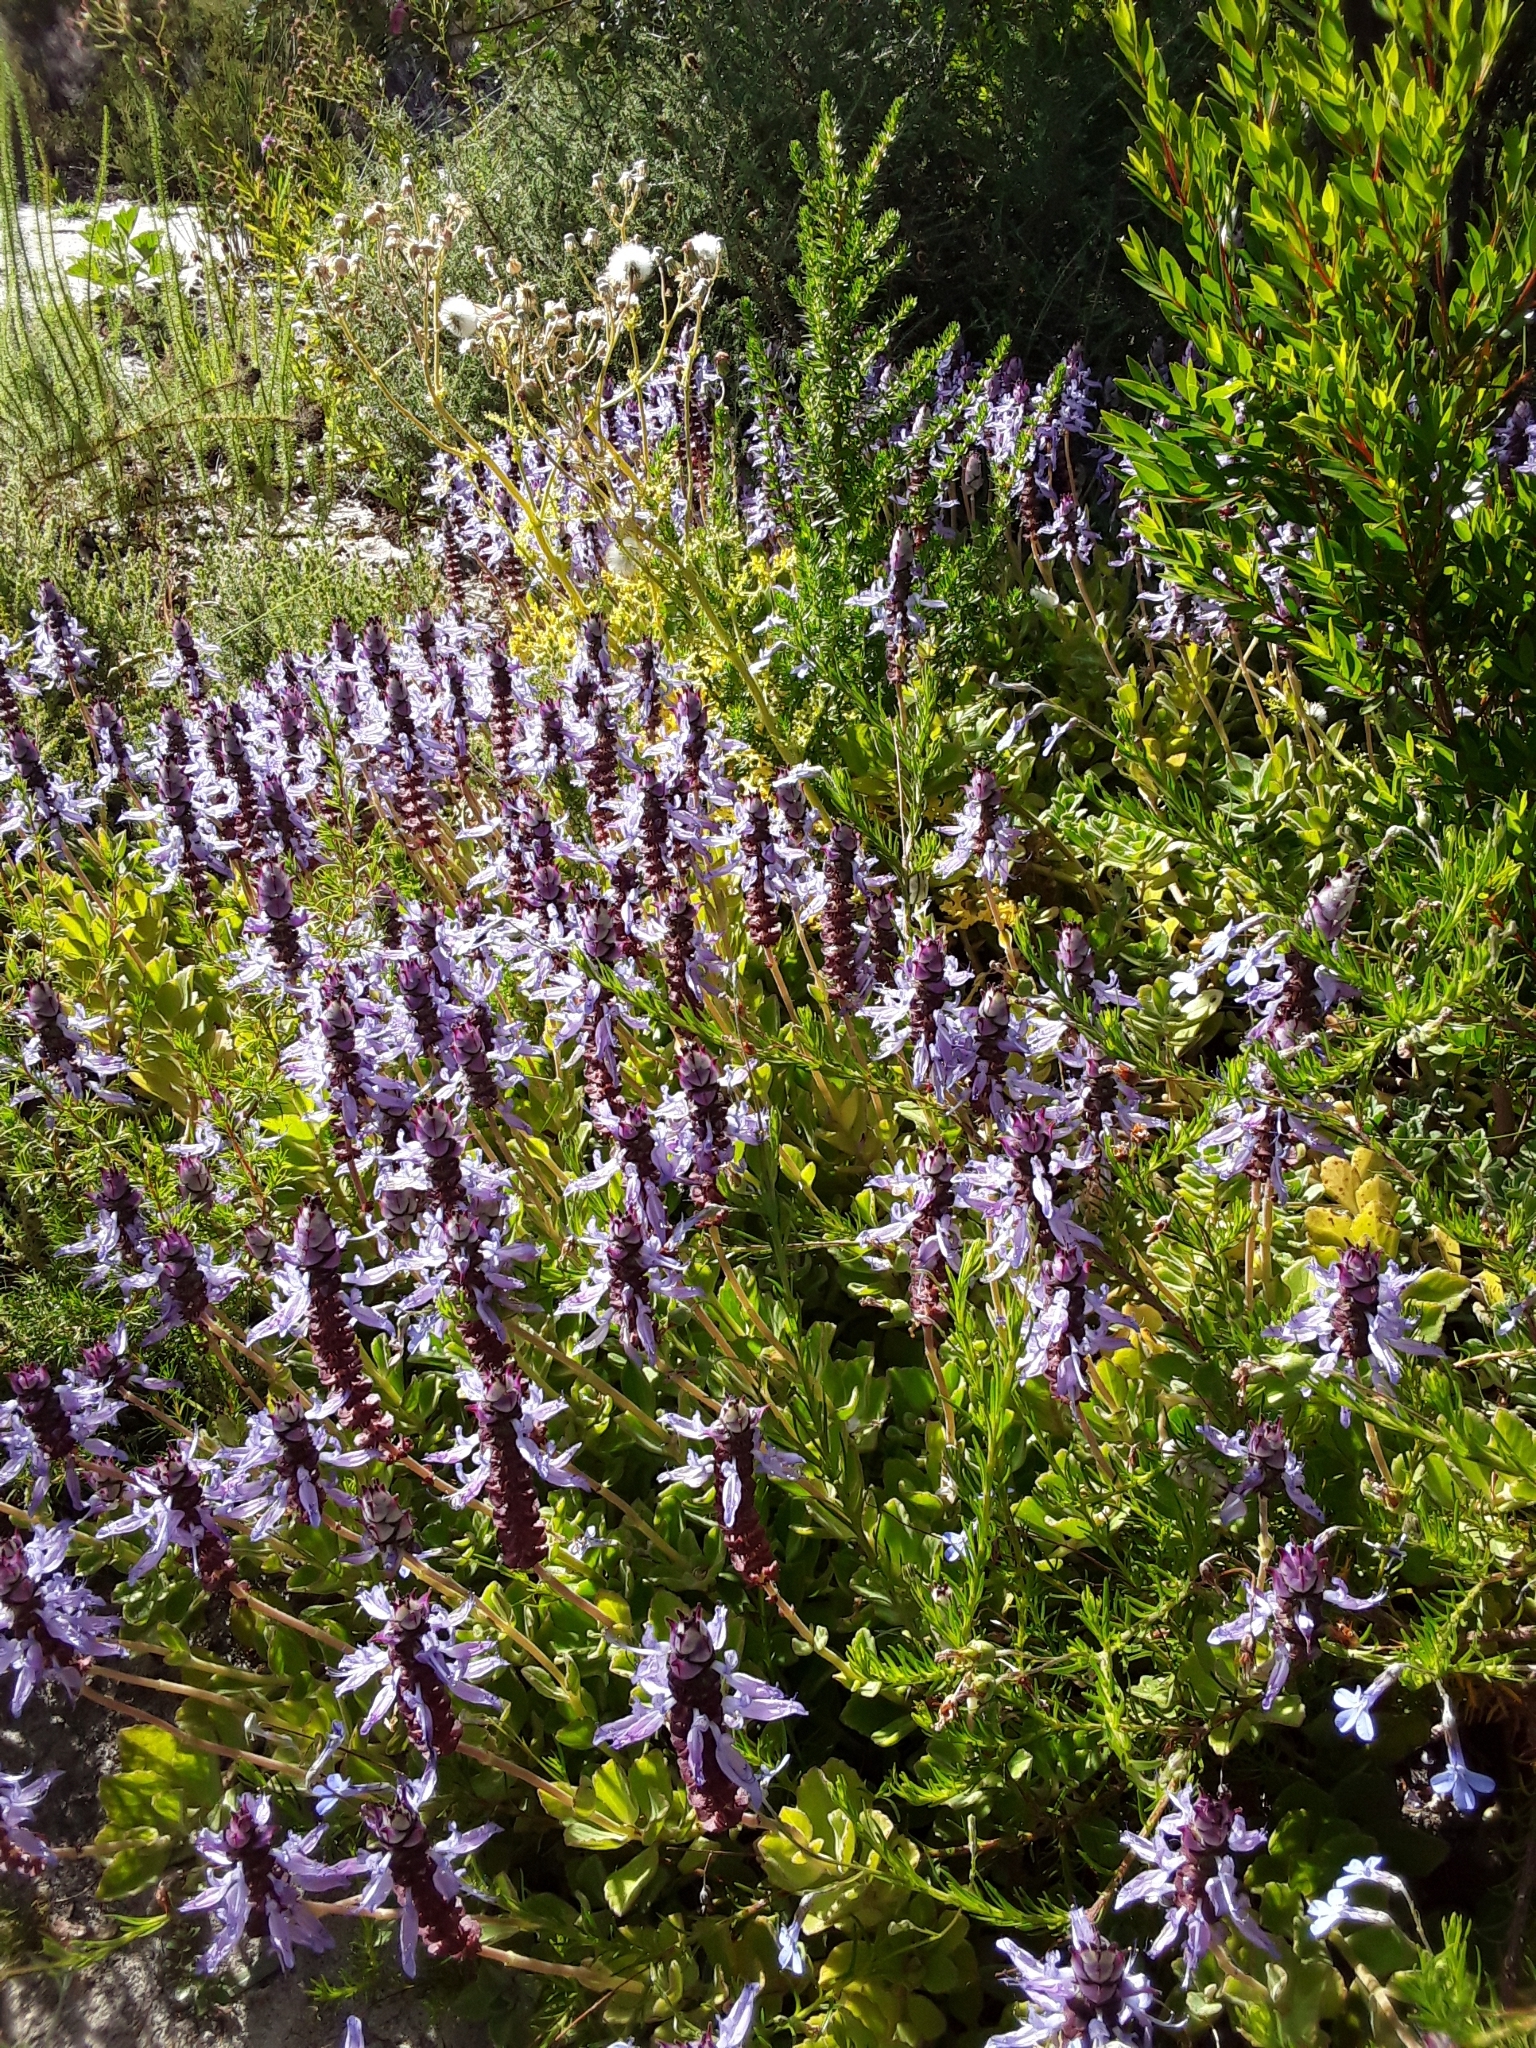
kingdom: Plantae
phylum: Tracheophyta
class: Magnoliopsida
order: Lamiales
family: Lamiaceae
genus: Coleus
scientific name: Coleus neochilus
